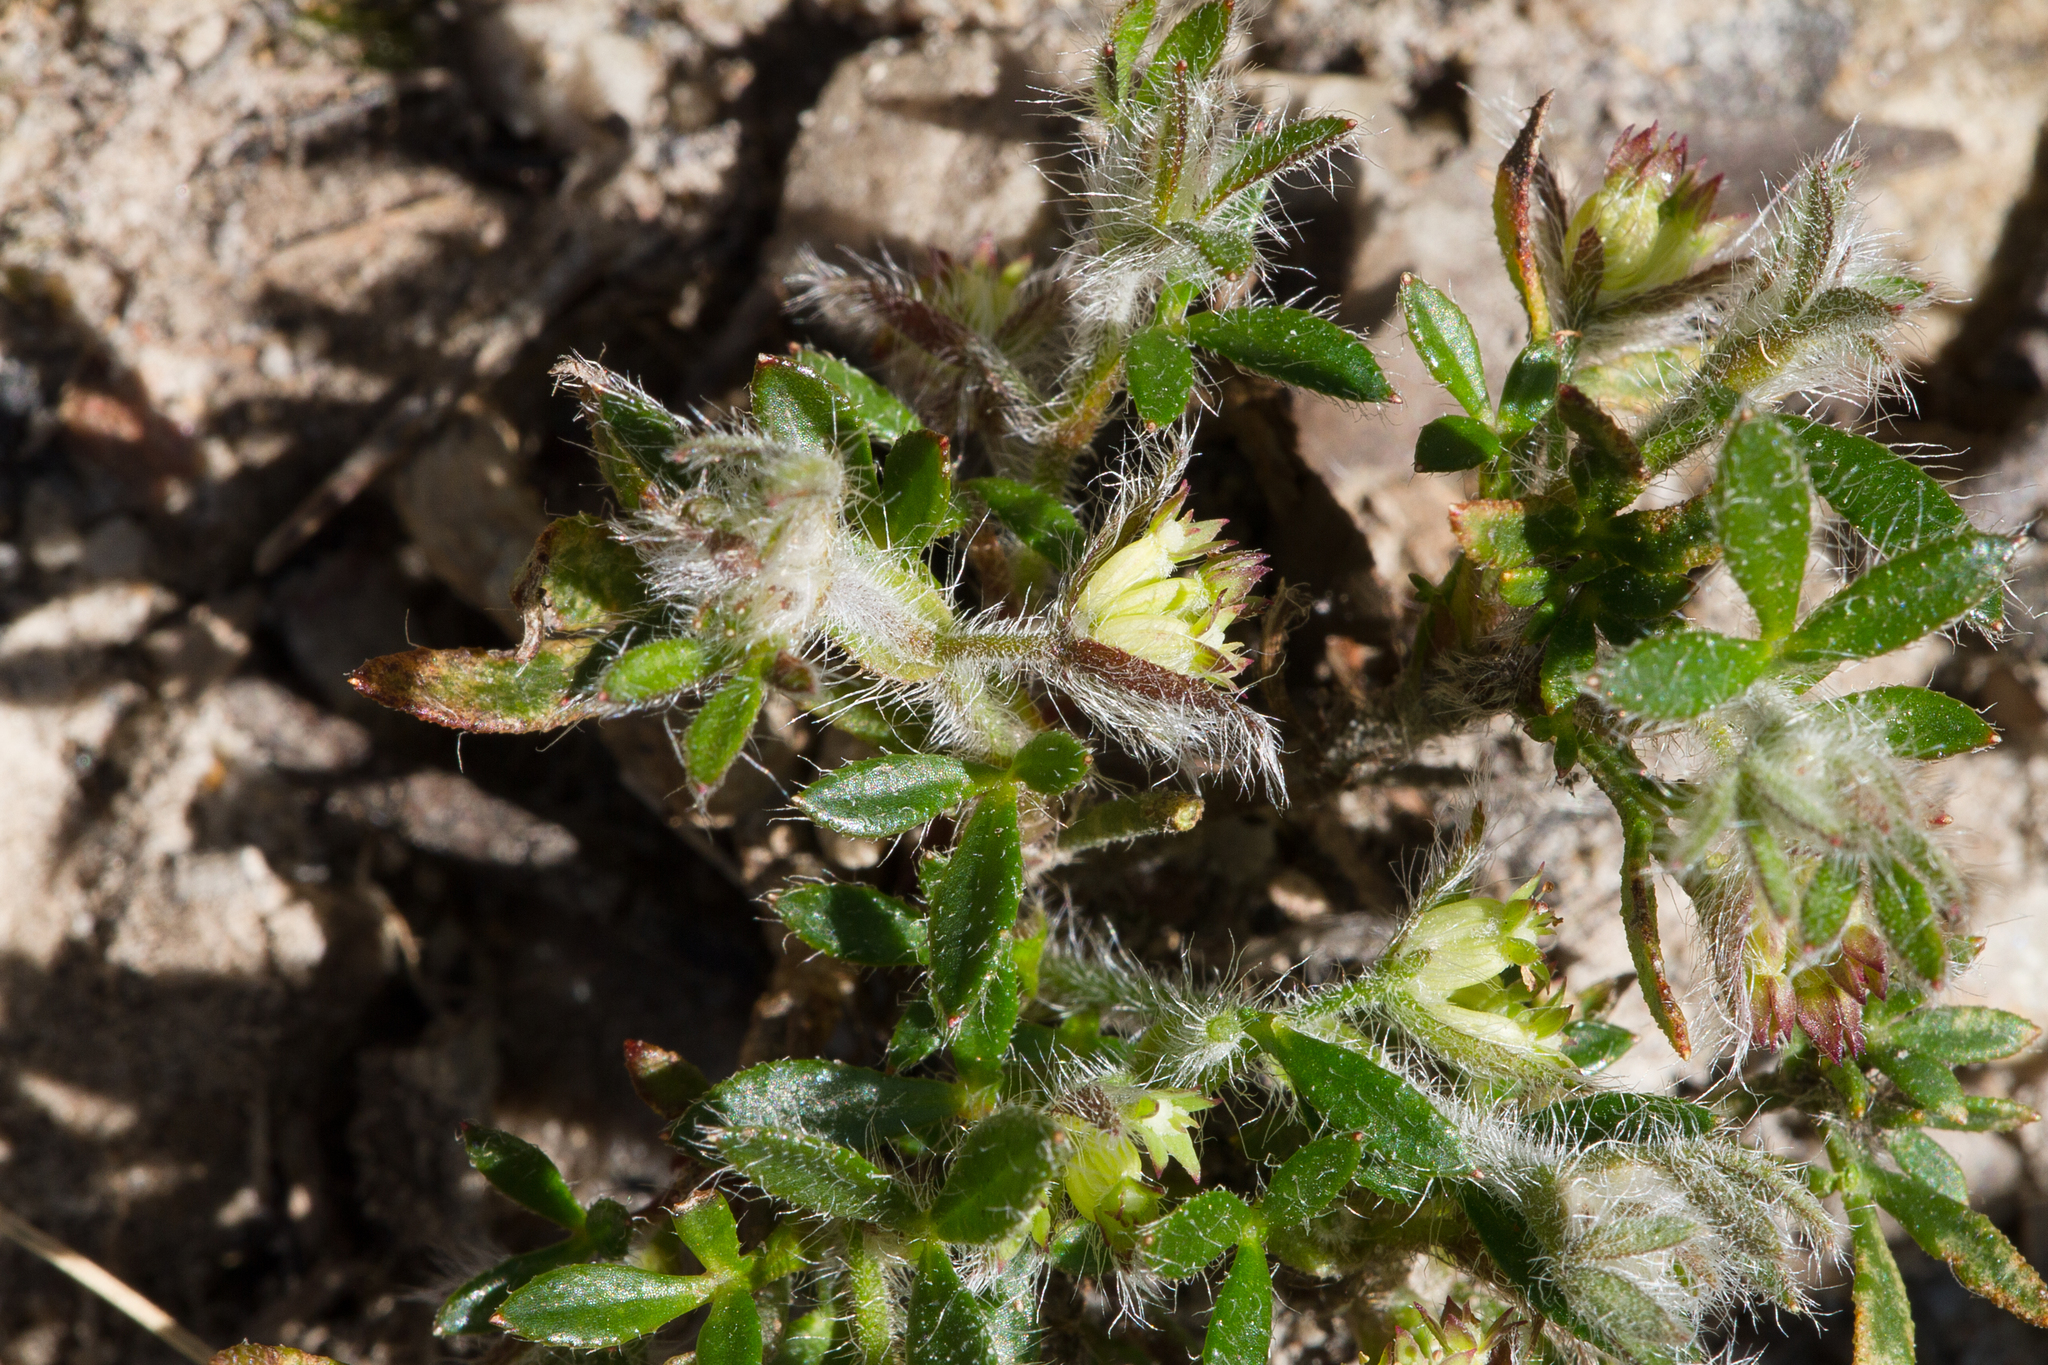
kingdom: Plantae
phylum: Tracheophyta
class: Magnoliopsida
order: Apiales
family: Apiaceae
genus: Xanthosia
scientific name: Xanthosia huegelii
